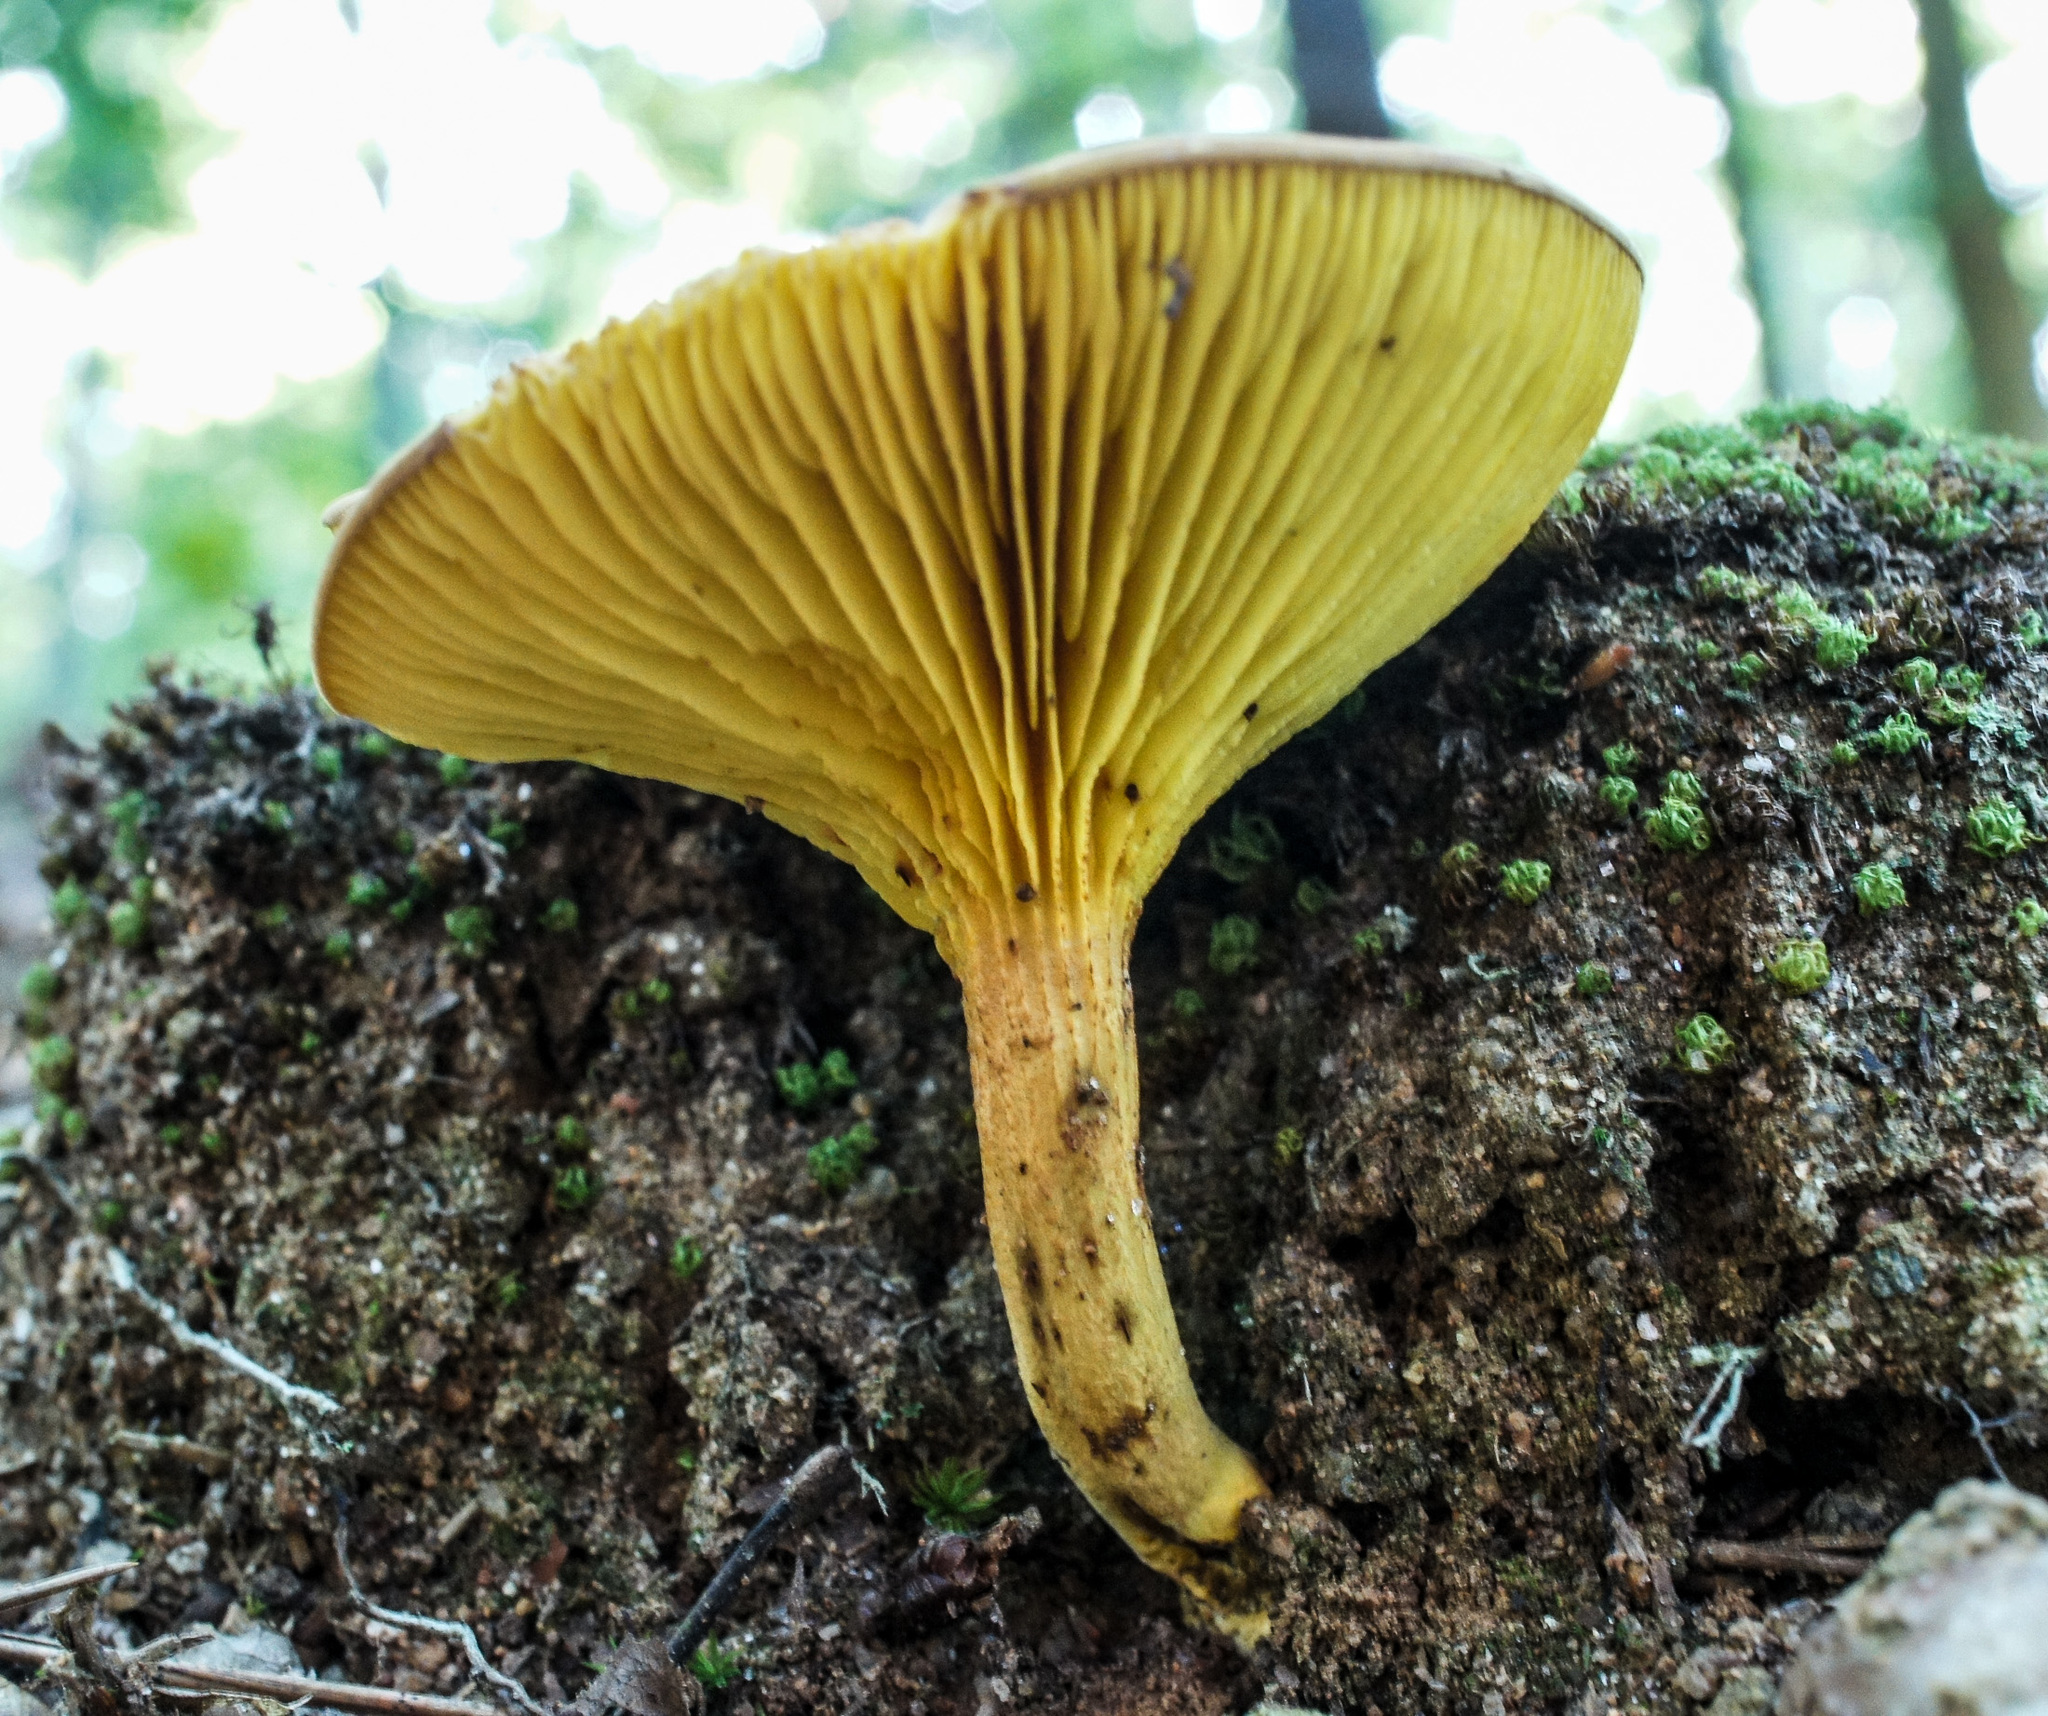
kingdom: Fungi
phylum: Basidiomycota
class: Agaricomycetes
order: Boletales
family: Boletaceae
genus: Phylloporus
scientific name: Phylloporus rhodoxanthus
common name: Golden gilled bolete
